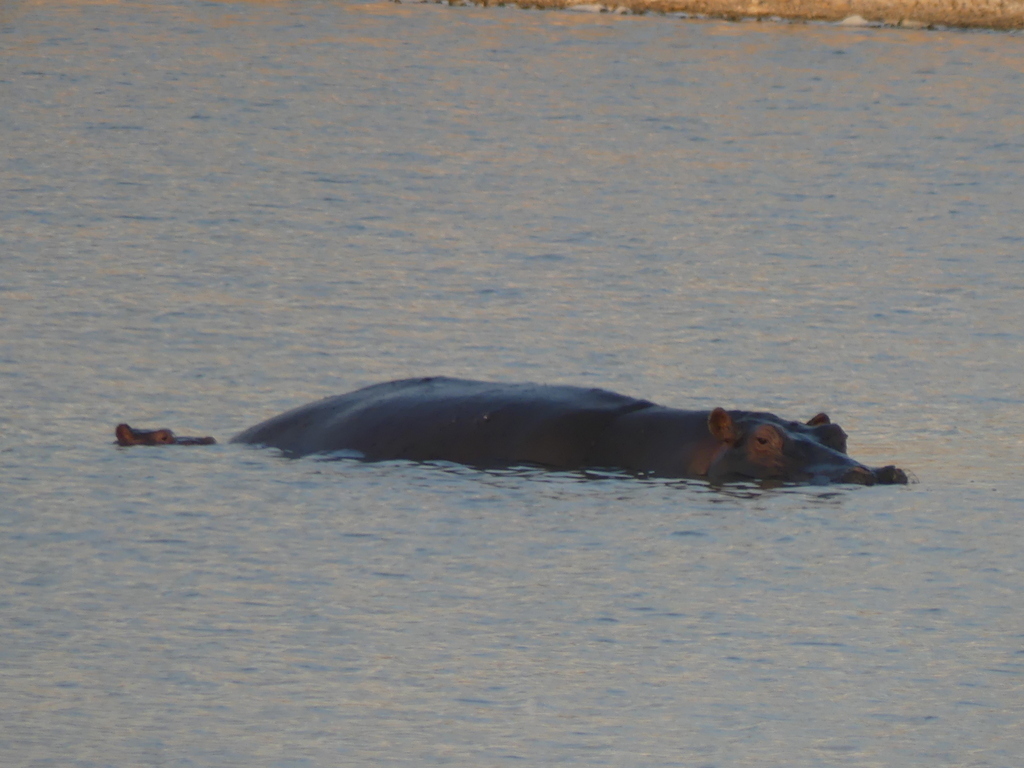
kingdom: Animalia
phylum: Chordata
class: Mammalia
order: Artiodactyla
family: Hippopotamidae
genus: Hippopotamus
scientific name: Hippopotamus amphibius
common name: Common hippopotamus
